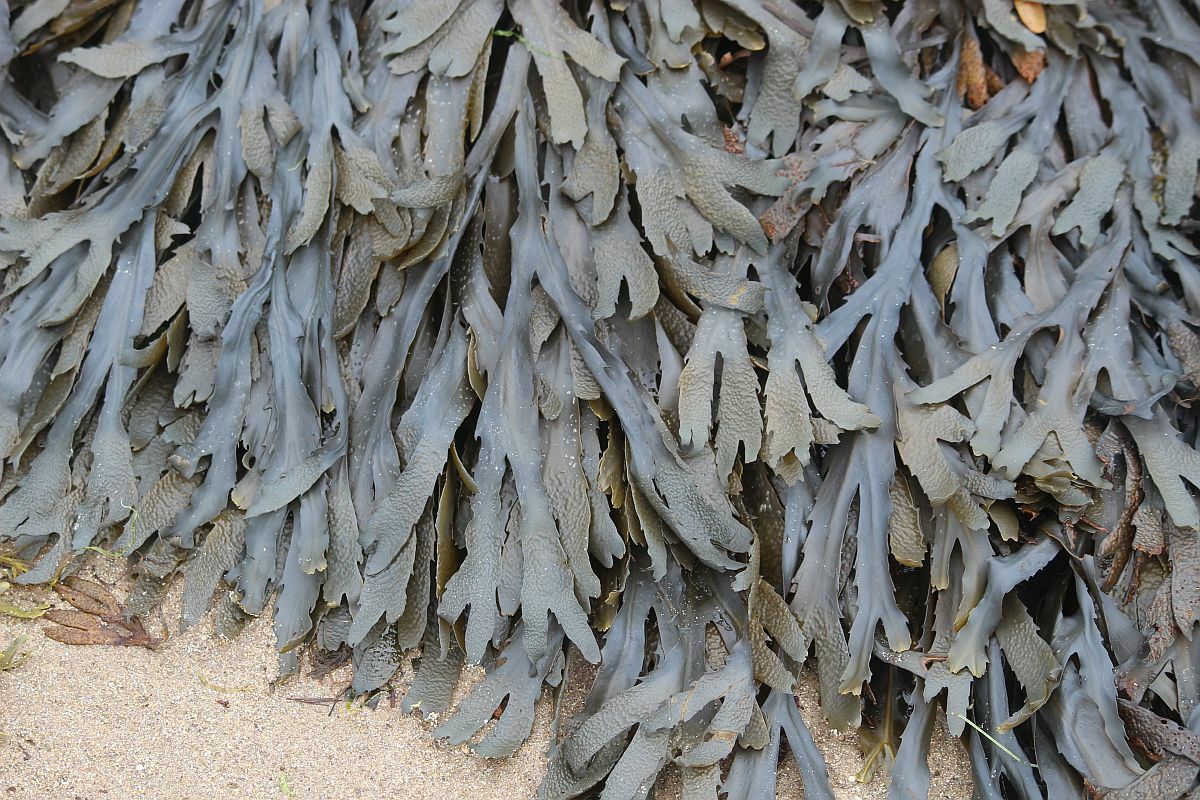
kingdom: Chromista
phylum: Ochrophyta
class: Phaeophyceae
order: Fucales
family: Fucaceae
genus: Fucus
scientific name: Fucus serratus
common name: Toothed wrack
